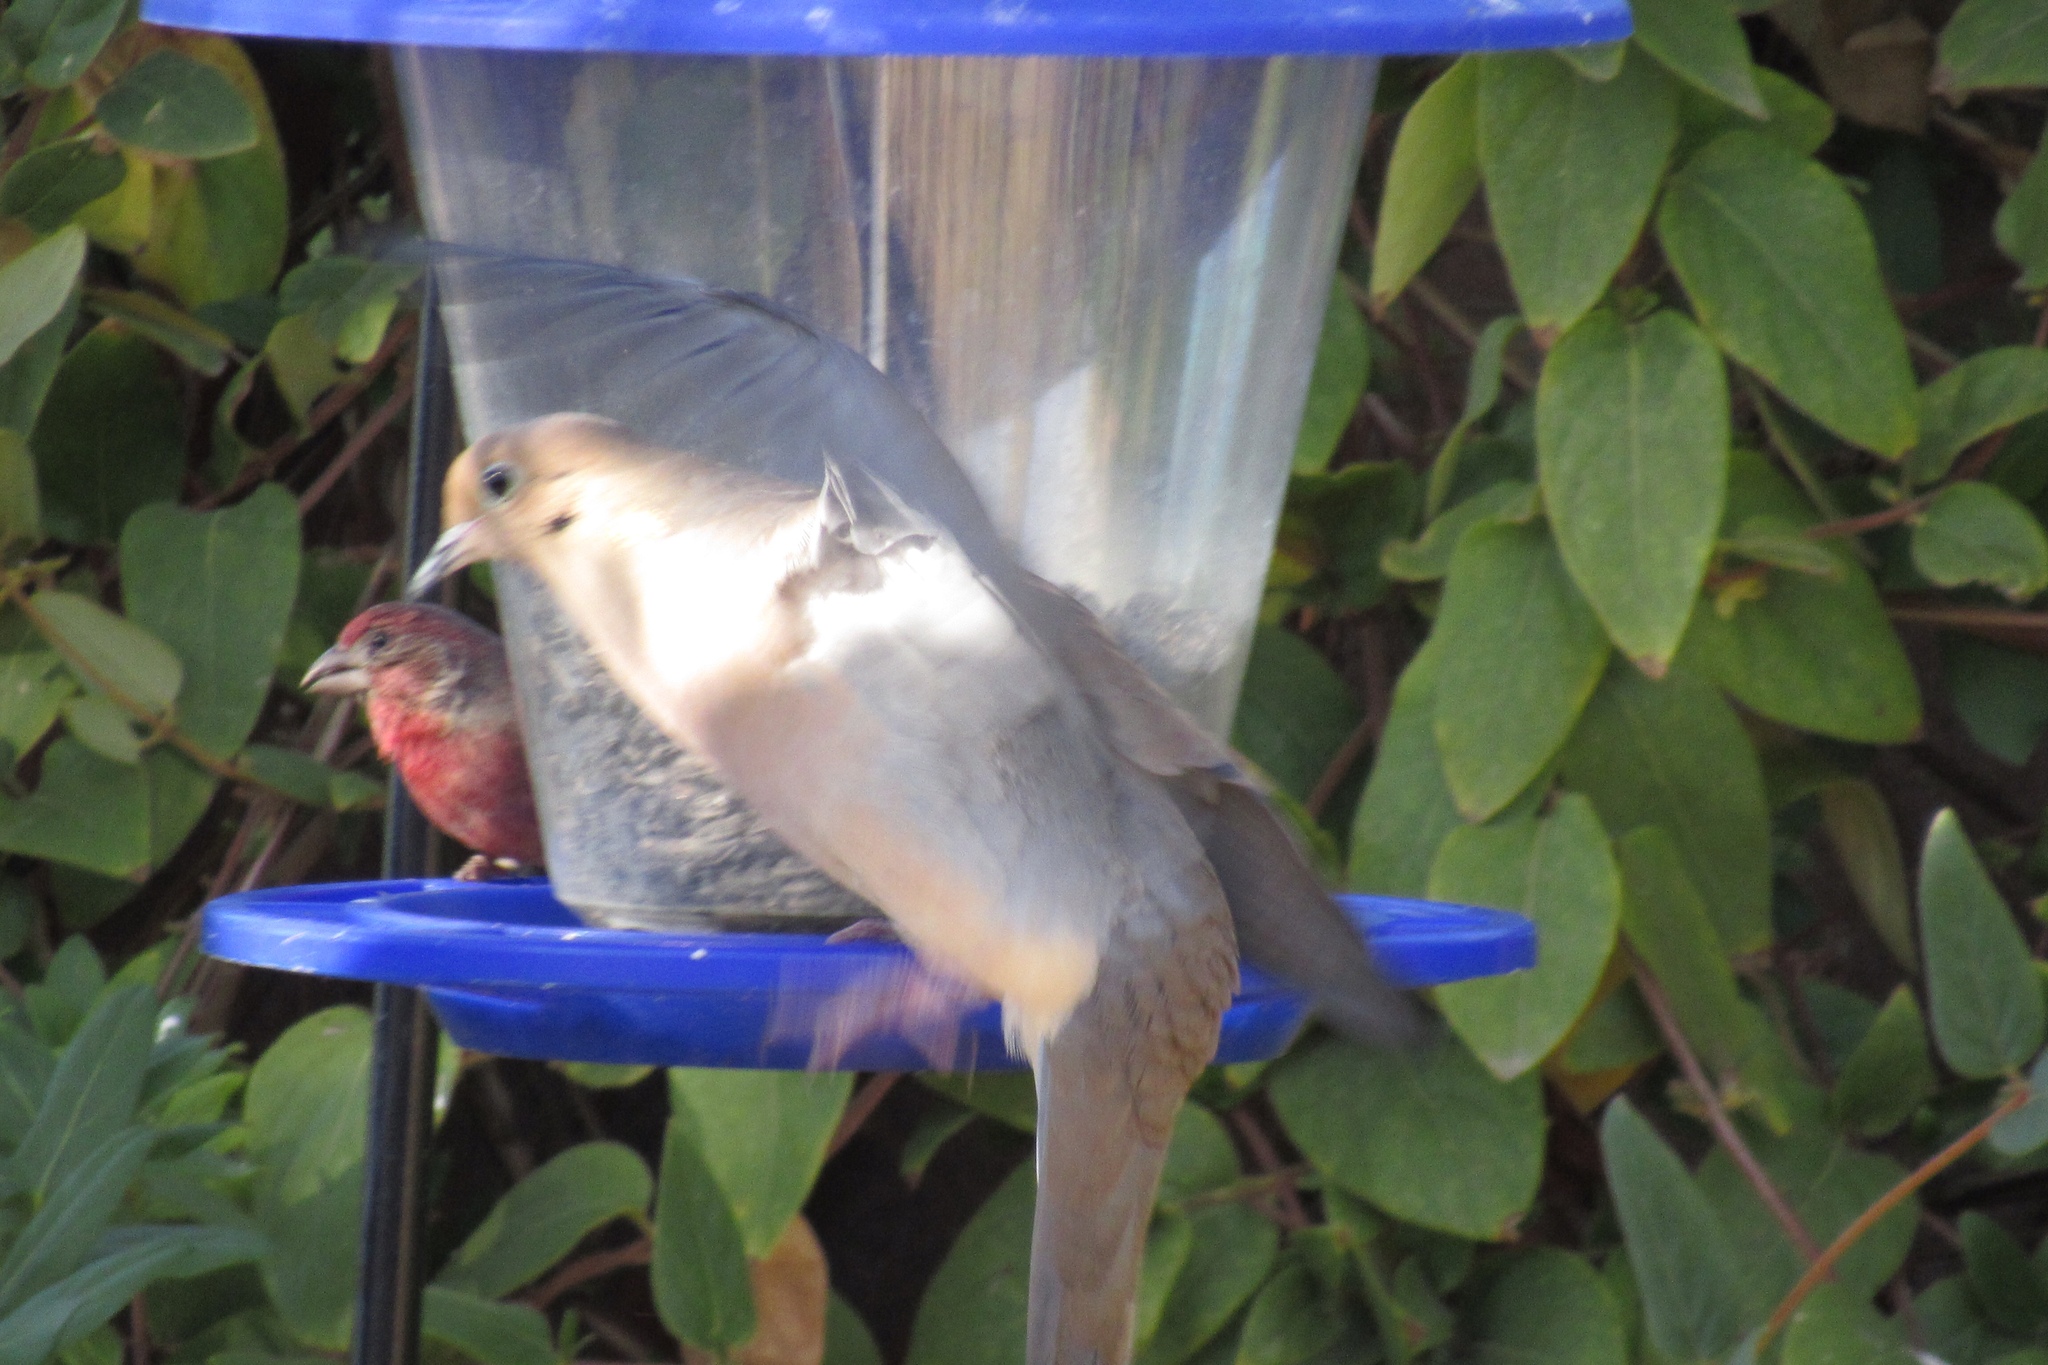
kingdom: Animalia
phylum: Chordata
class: Aves
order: Columbiformes
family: Columbidae
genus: Zenaida
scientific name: Zenaida macroura
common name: Mourning dove
